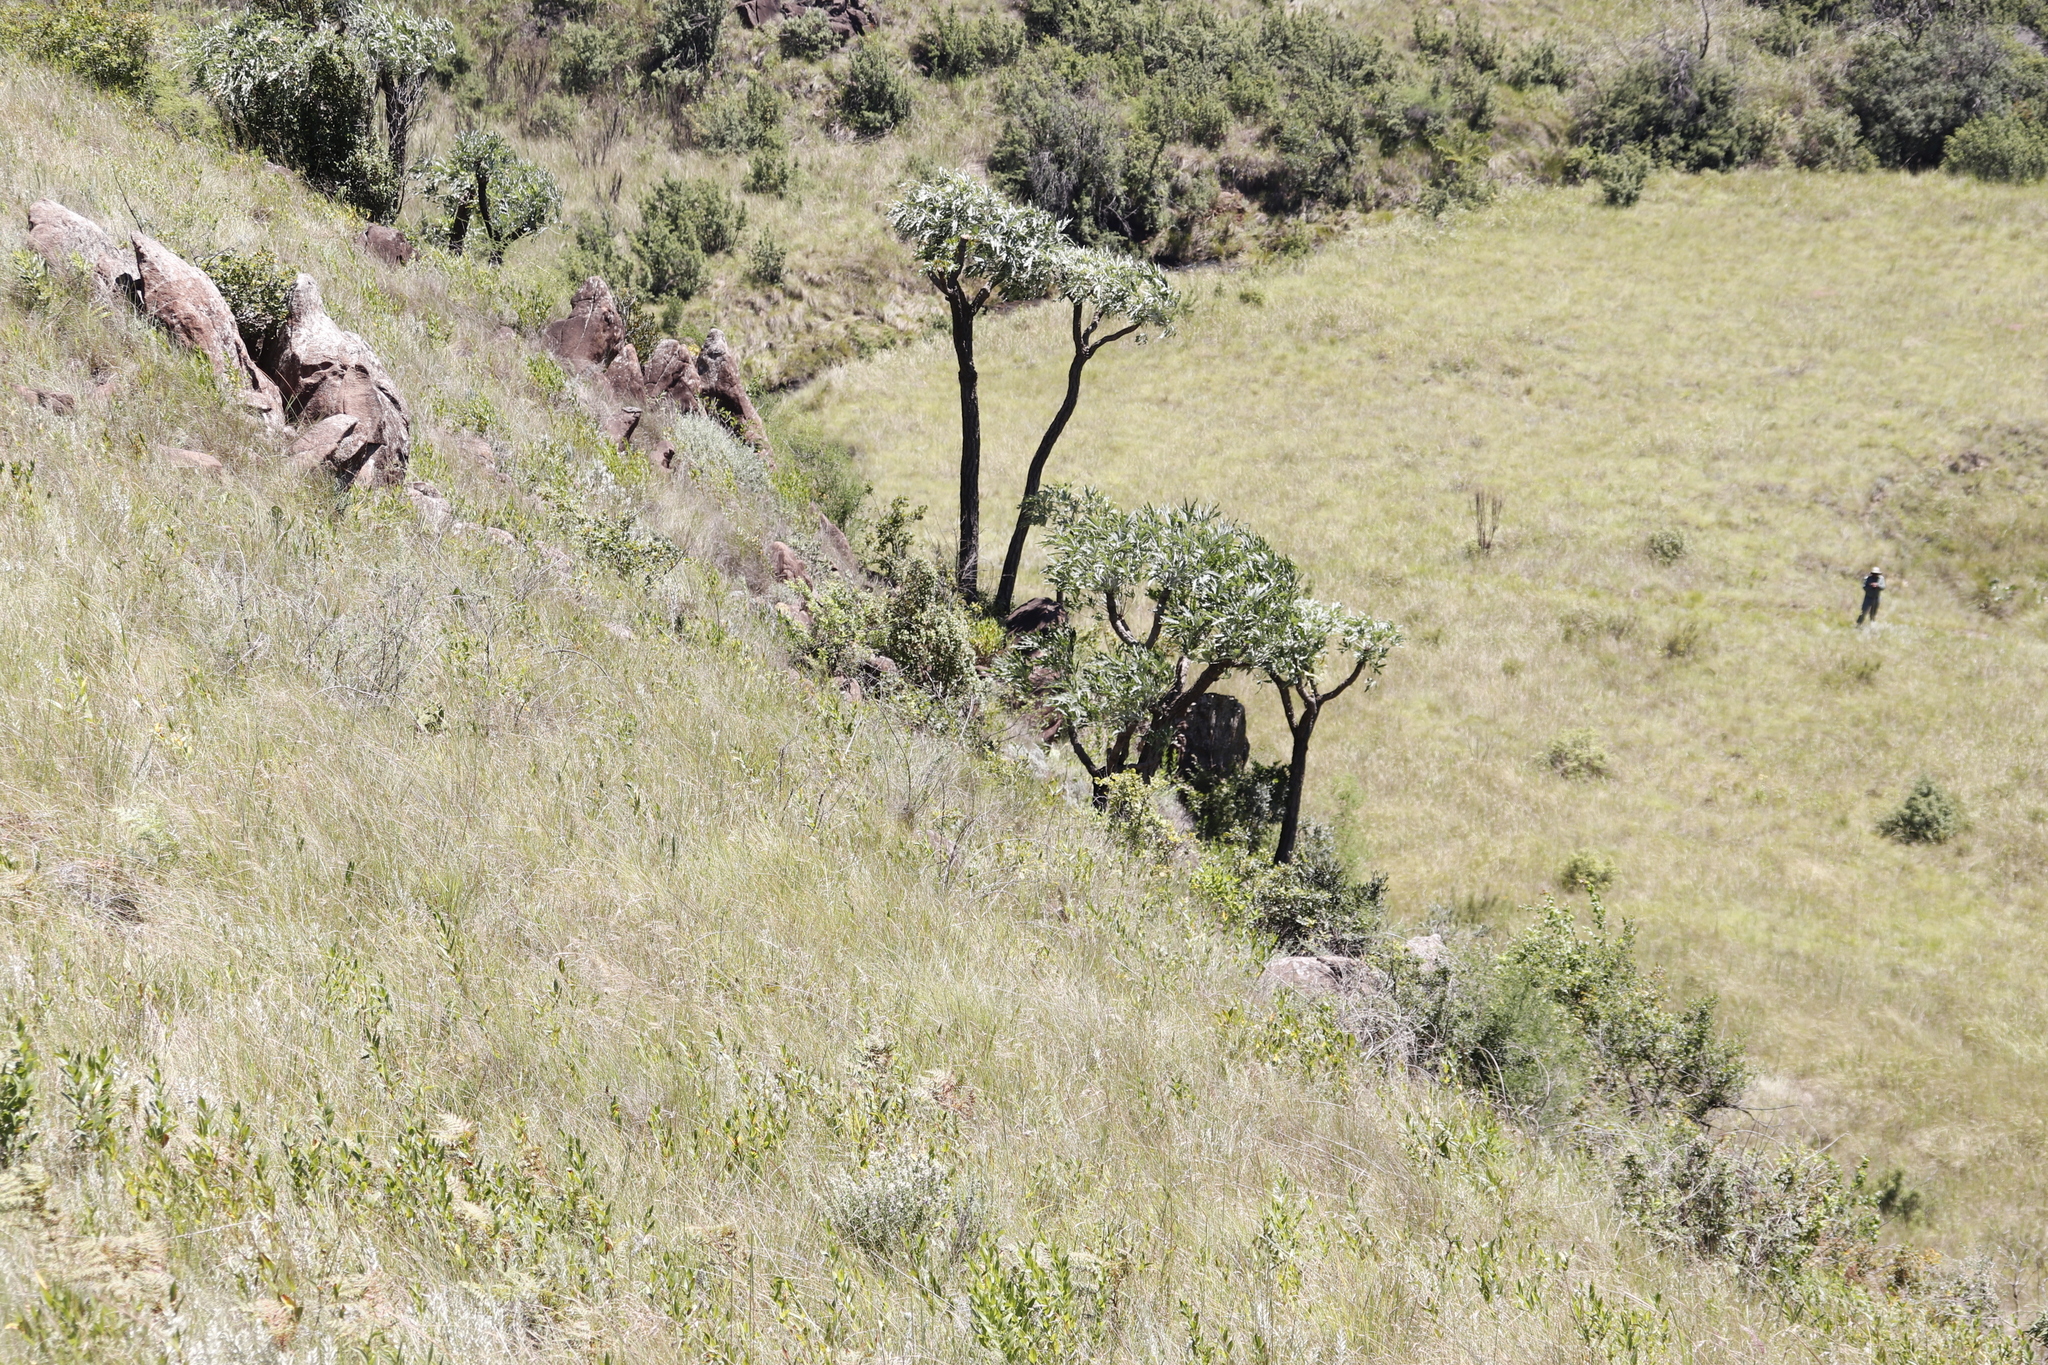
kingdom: Plantae
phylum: Tracheophyta
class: Magnoliopsida
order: Apiales
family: Araliaceae
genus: Cussonia
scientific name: Cussonia paniculata
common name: Cabbagetree
